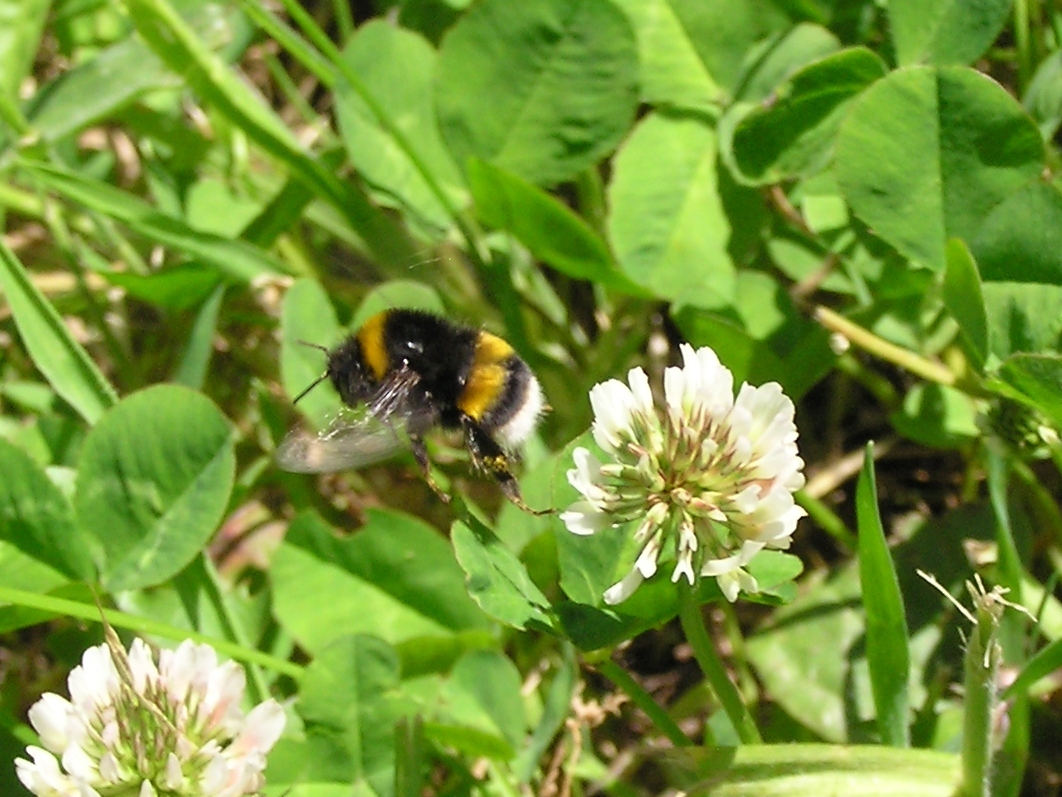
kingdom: Animalia
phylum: Arthropoda
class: Insecta
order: Hymenoptera
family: Apidae
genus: Bombus
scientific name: Bombus terrestris
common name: Buff-tailed bumblebee
